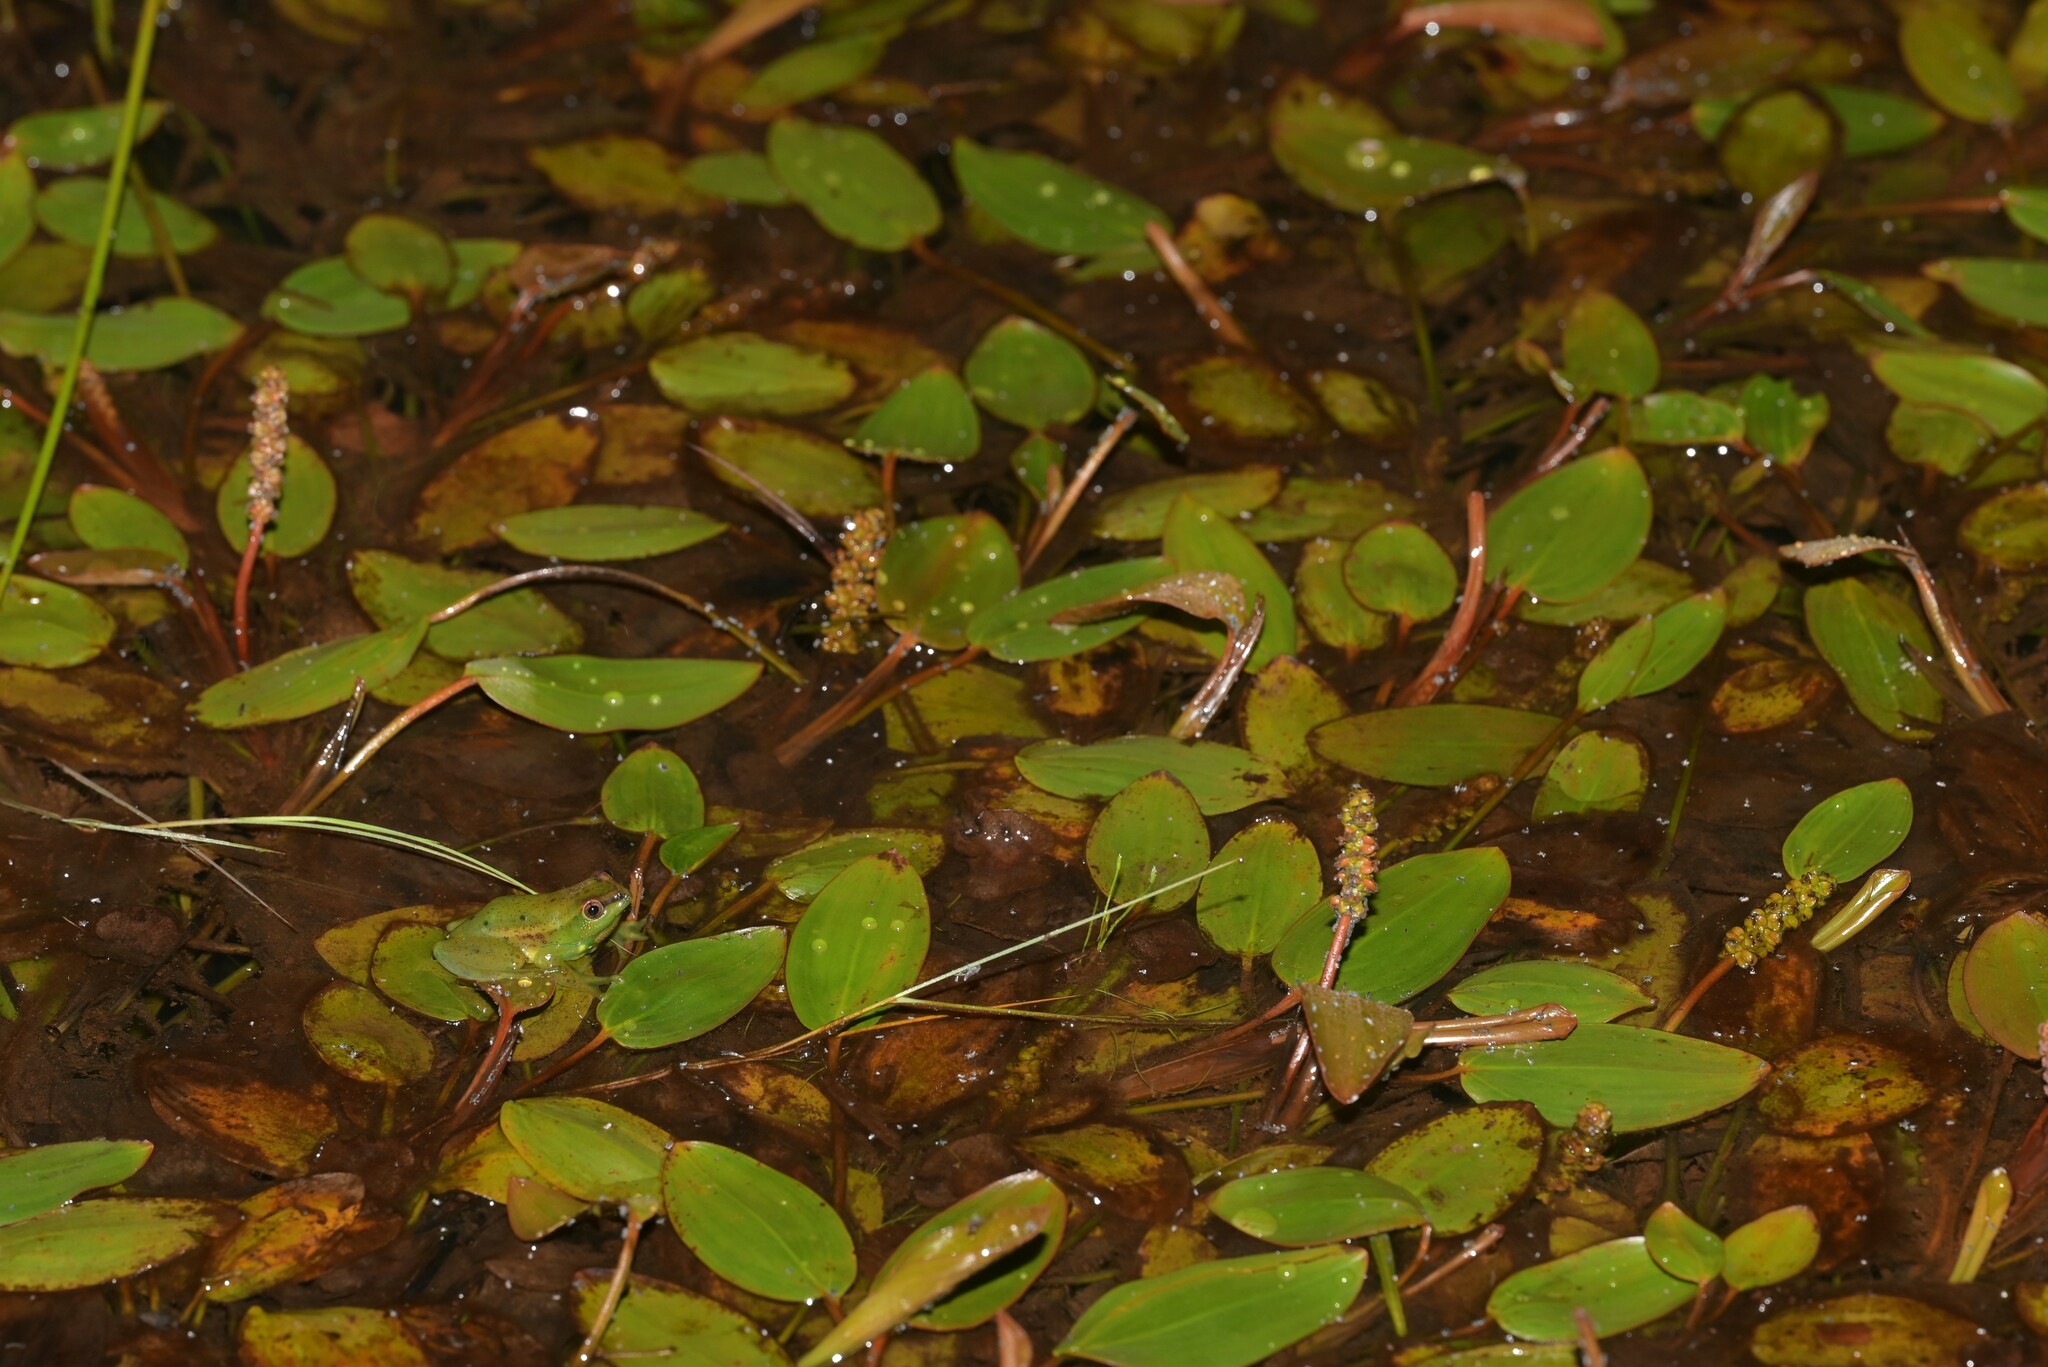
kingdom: Animalia
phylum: Chordata
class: Amphibia
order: Anura
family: Hyperoliidae
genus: Hyperolius
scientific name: Hyperolius pseudargus
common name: Mette's reed frog
